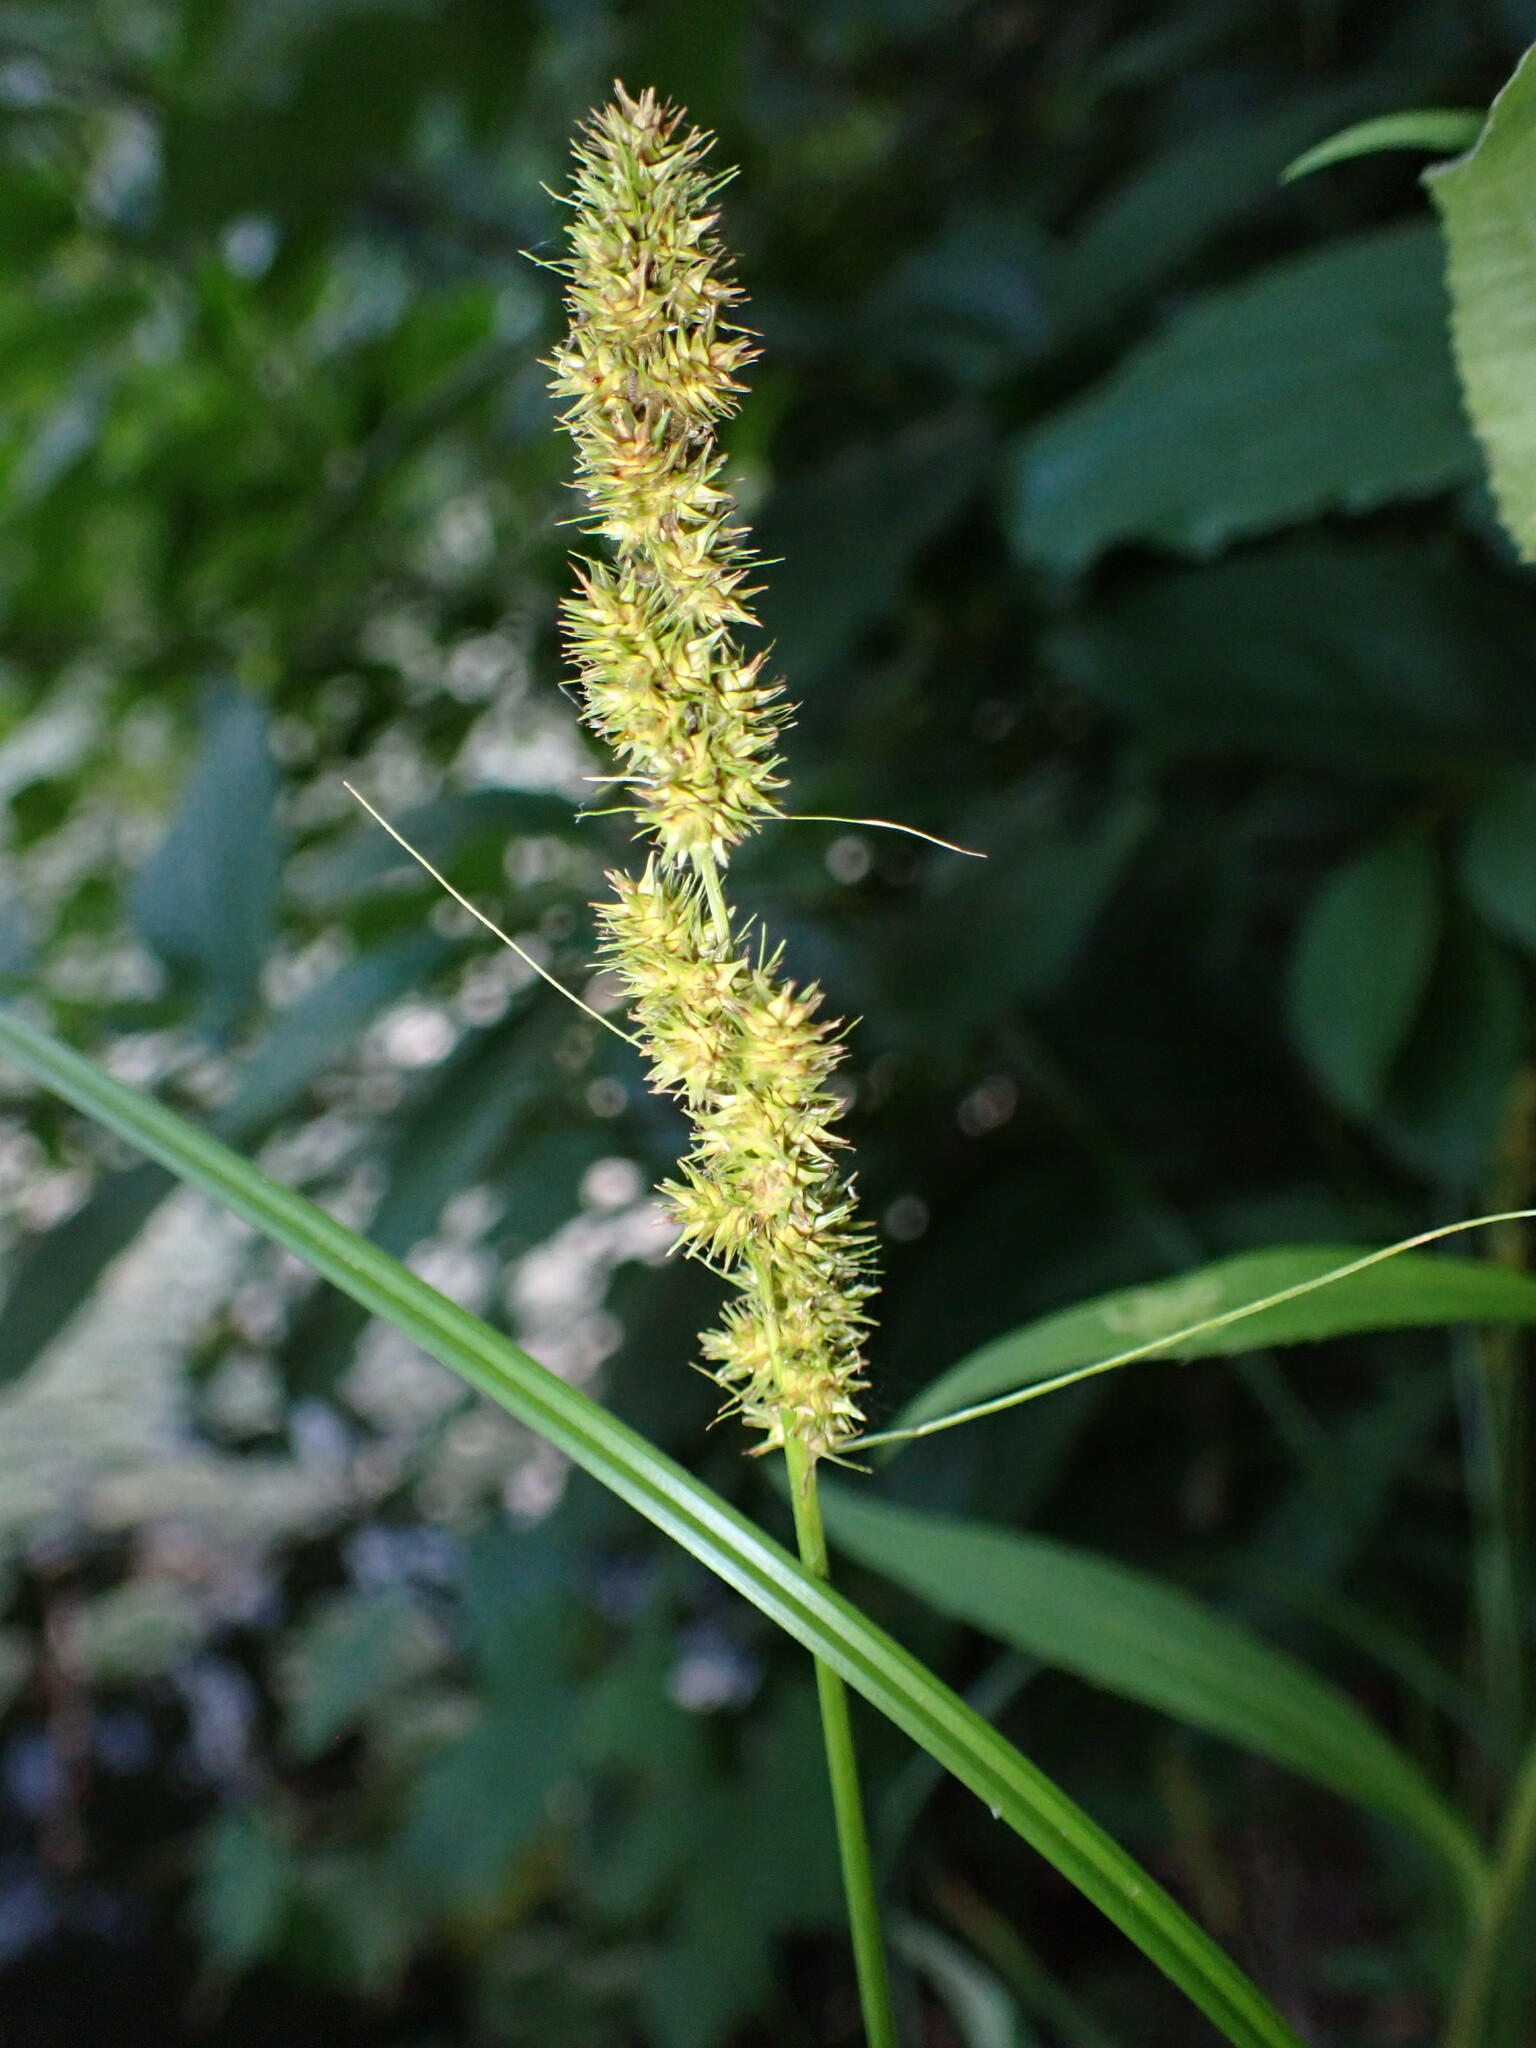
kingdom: Plantae
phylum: Tracheophyta
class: Liliopsida
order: Poales
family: Cyperaceae
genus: Carex
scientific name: Carex vulpinoidea
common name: American fox-sedge
